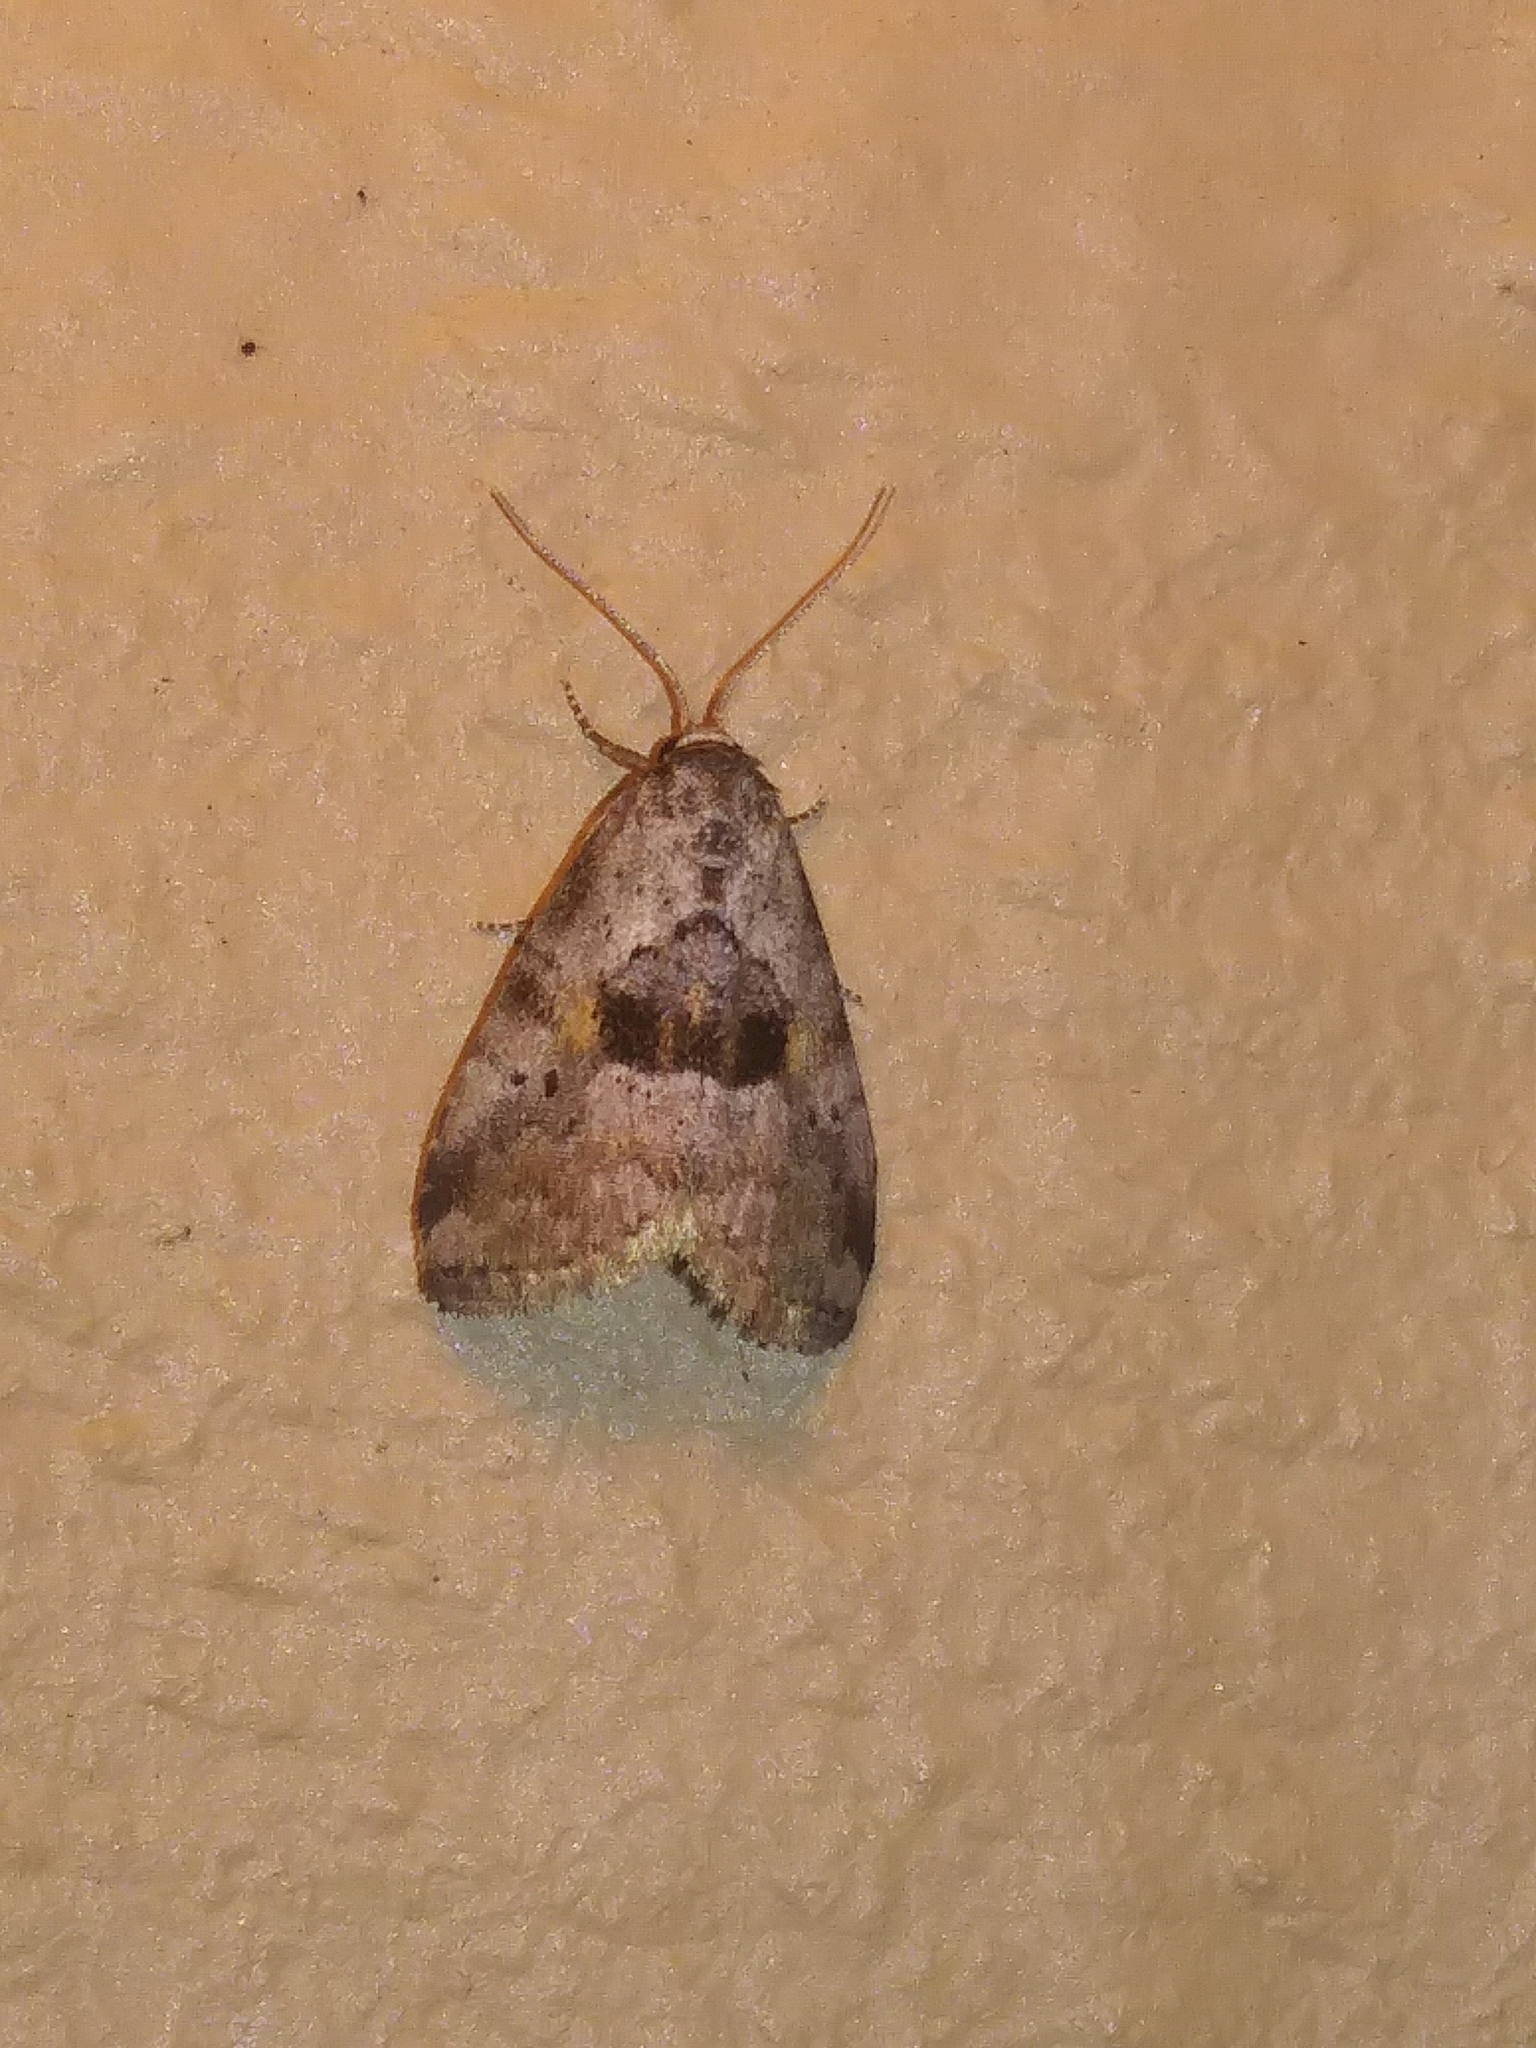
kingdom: Animalia
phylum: Arthropoda
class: Insecta
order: Lepidoptera
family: Erebidae
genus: Hyperstrotia
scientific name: Hyperstrotia secta
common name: Black-patched graylet
